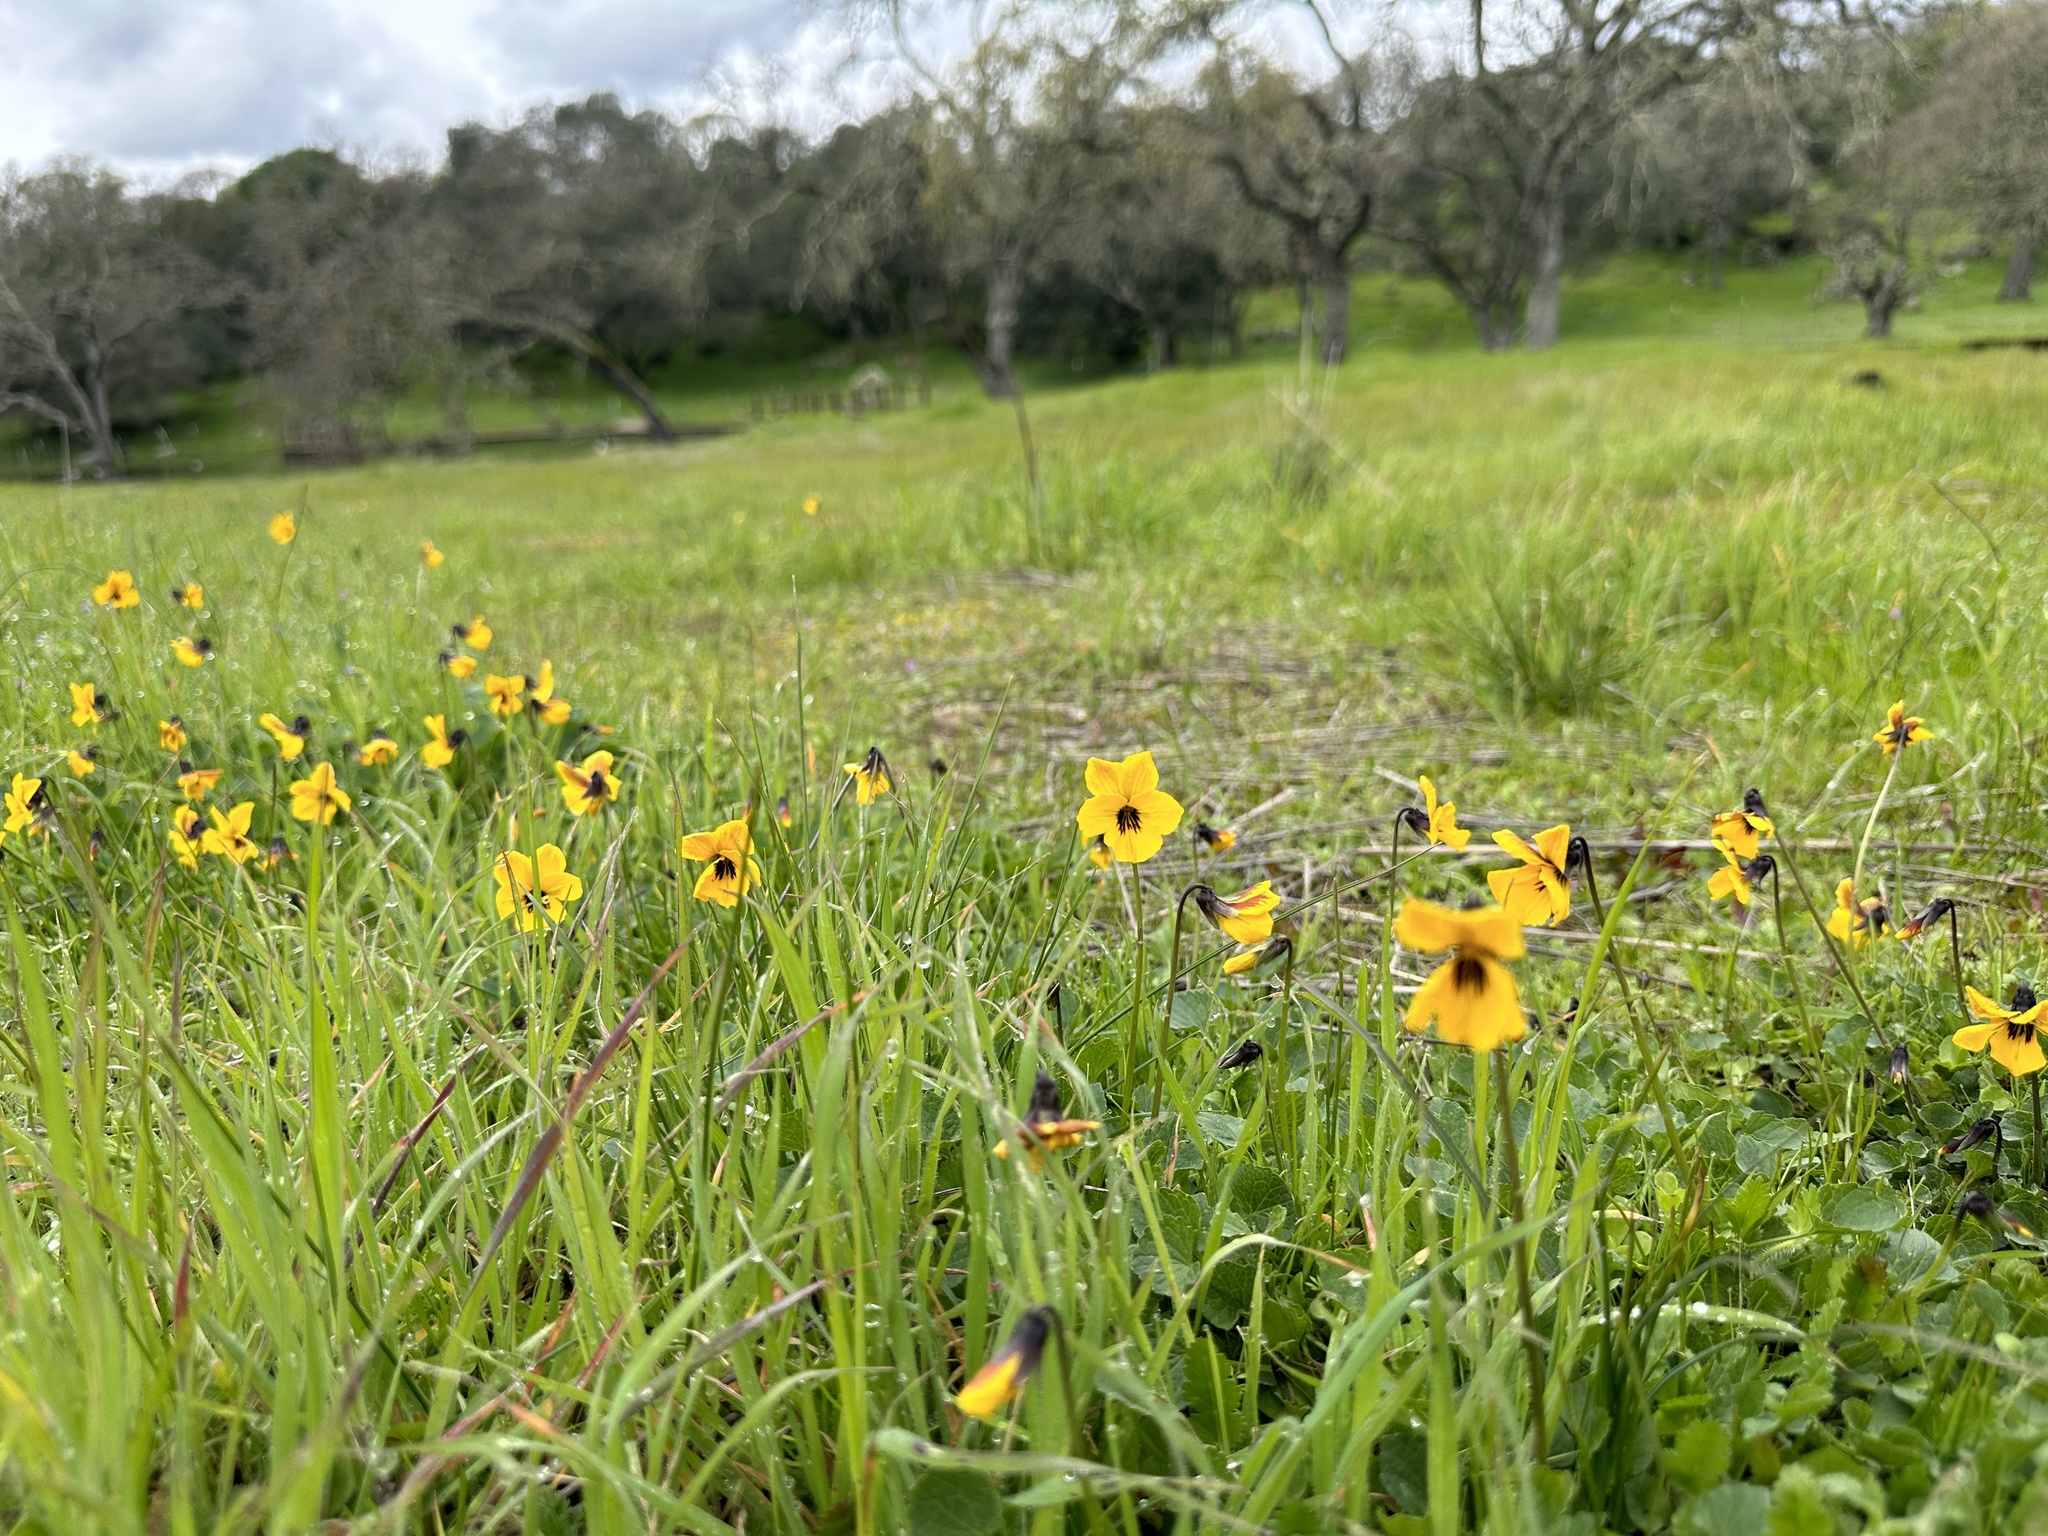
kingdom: Plantae
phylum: Tracheophyta
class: Magnoliopsida
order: Malpighiales
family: Violaceae
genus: Viola
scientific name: Viola pedunculata
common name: California golden violet
